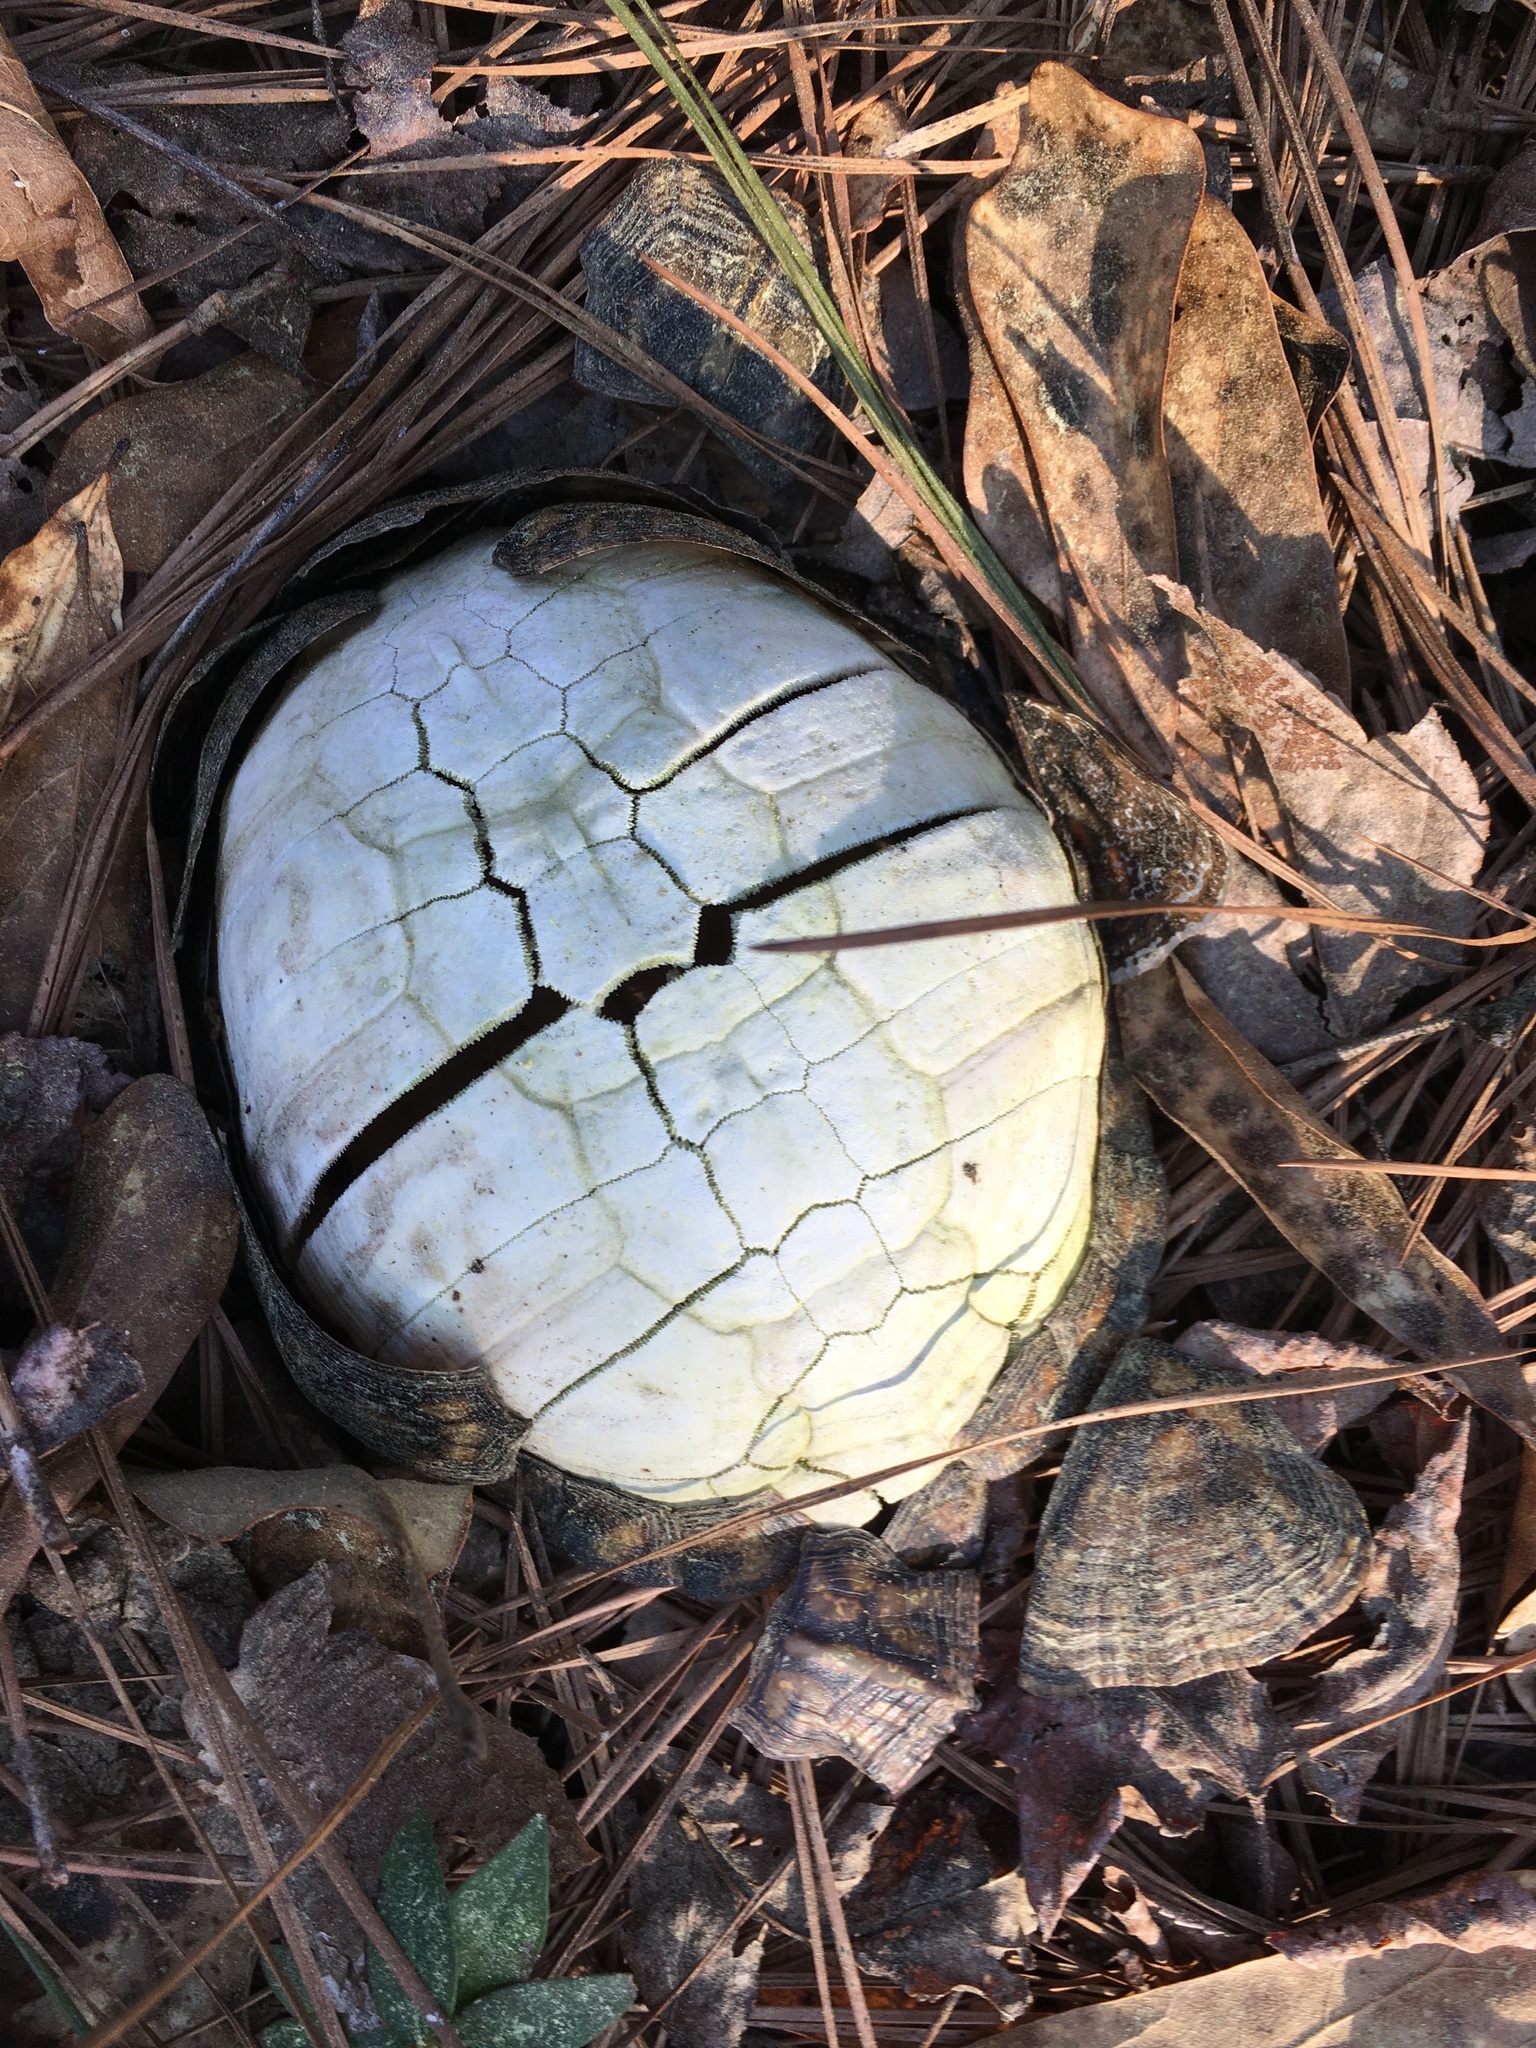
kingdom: Animalia
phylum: Chordata
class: Testudines
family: Emydidae
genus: Terrapene
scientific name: Terrapene carolina
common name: Common box turtle
